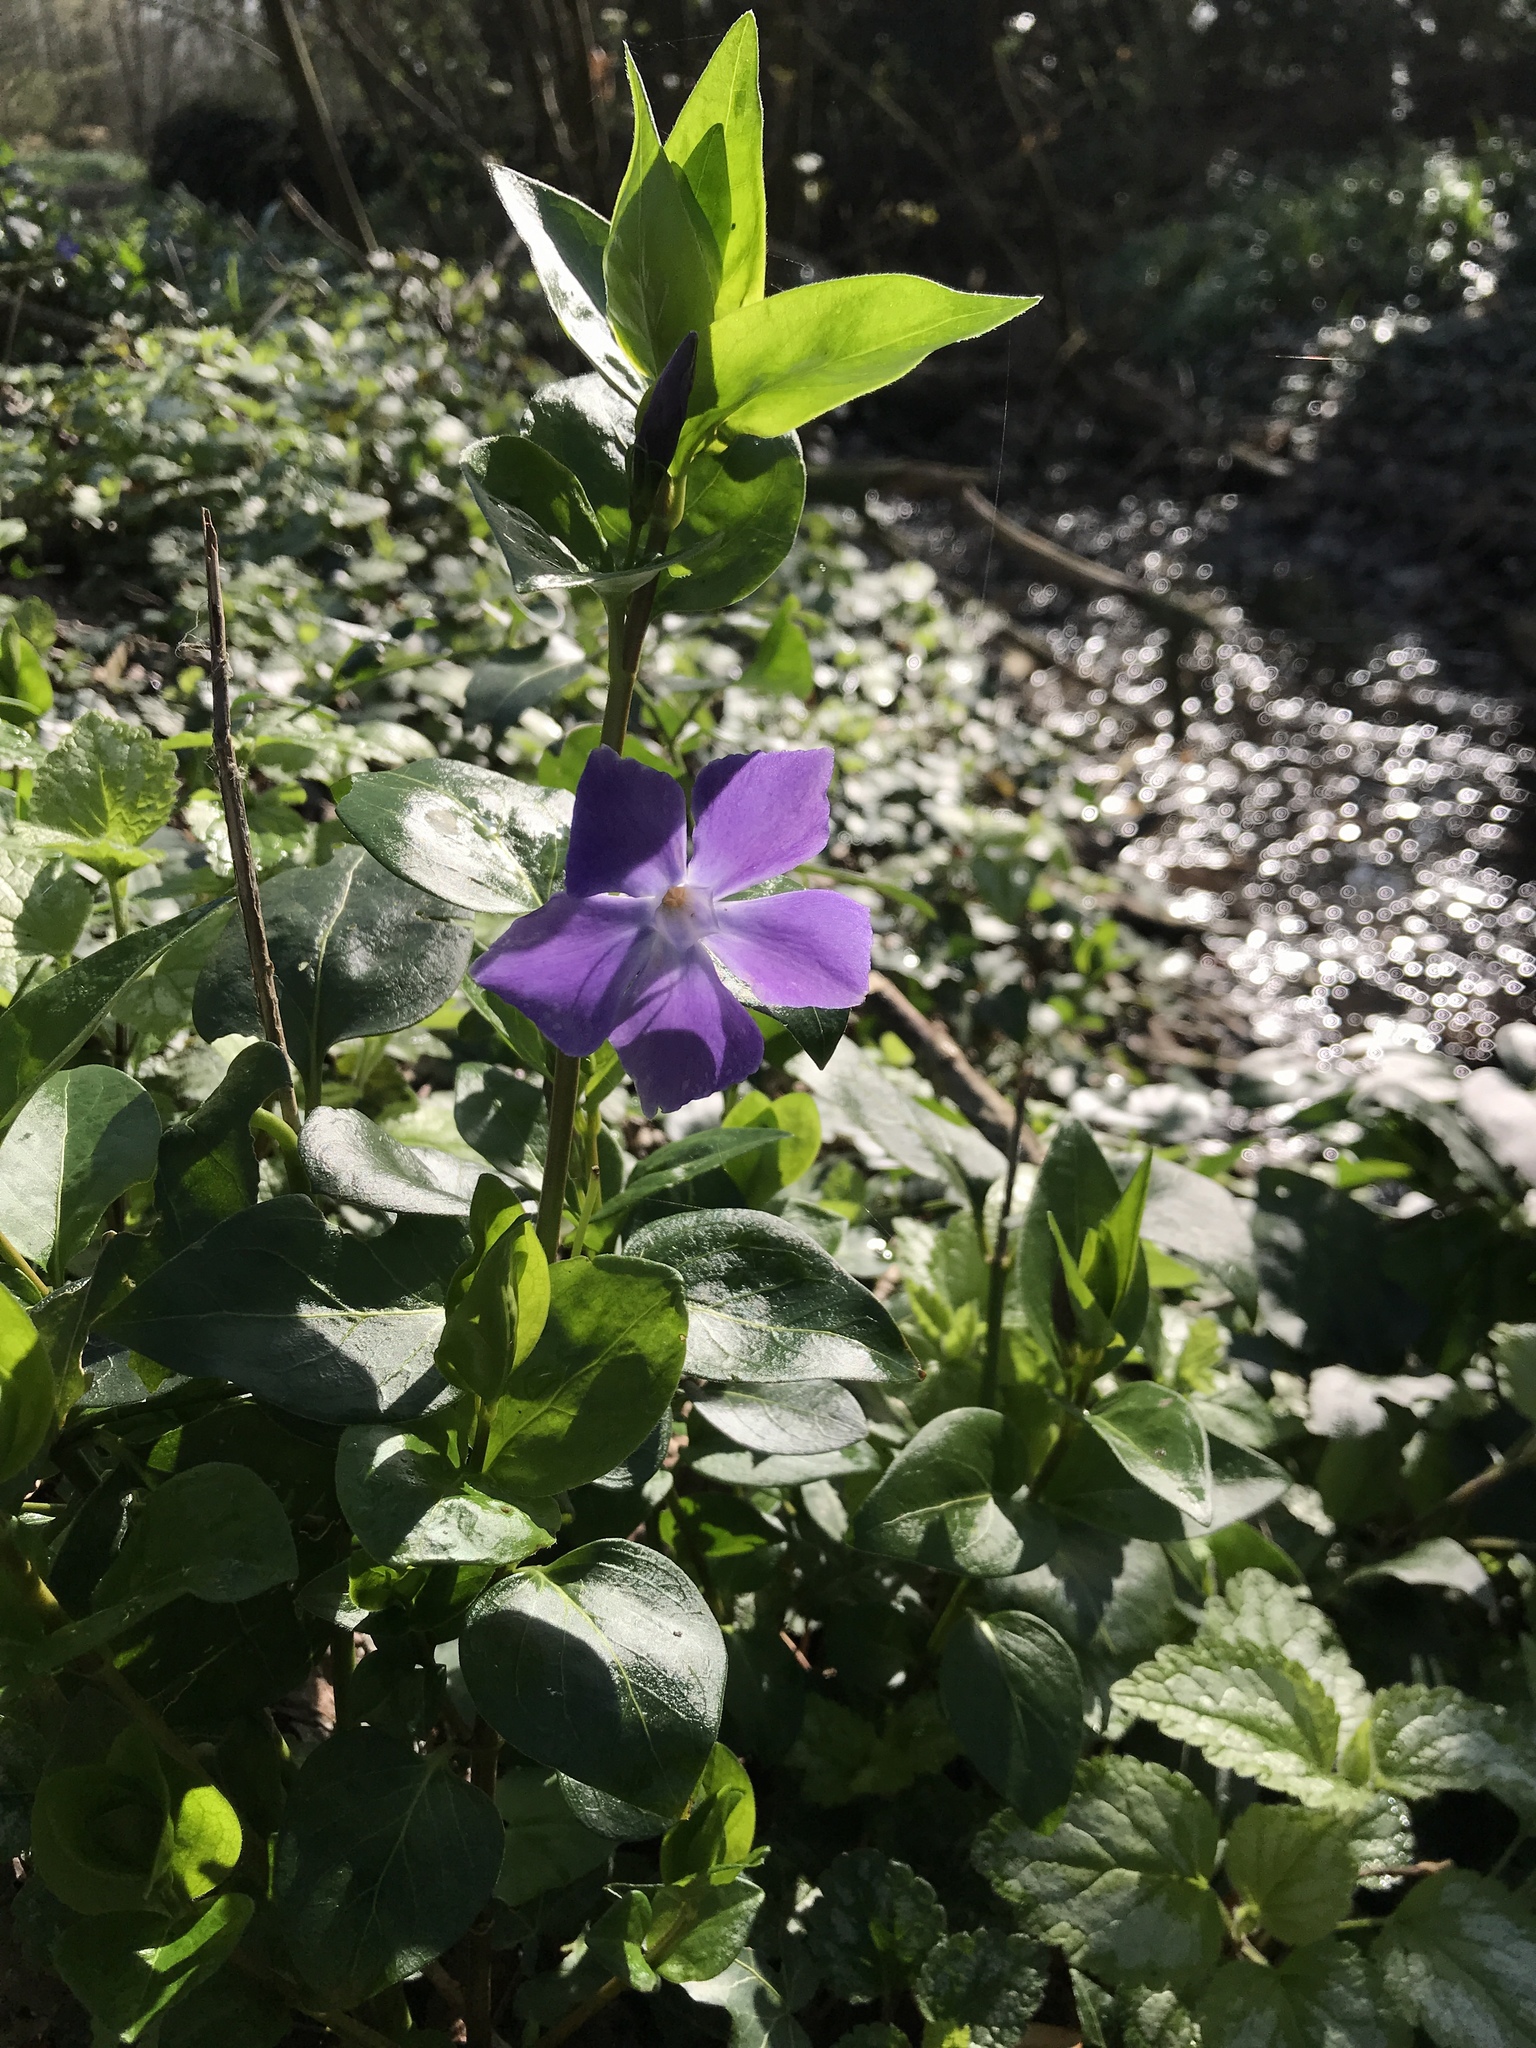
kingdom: Plantae
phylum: Tracheophyta
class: Magnoliopsida
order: Gentianales
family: Apocynaceae
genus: Vinca
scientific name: Vinca major
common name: Greater periwinkle
